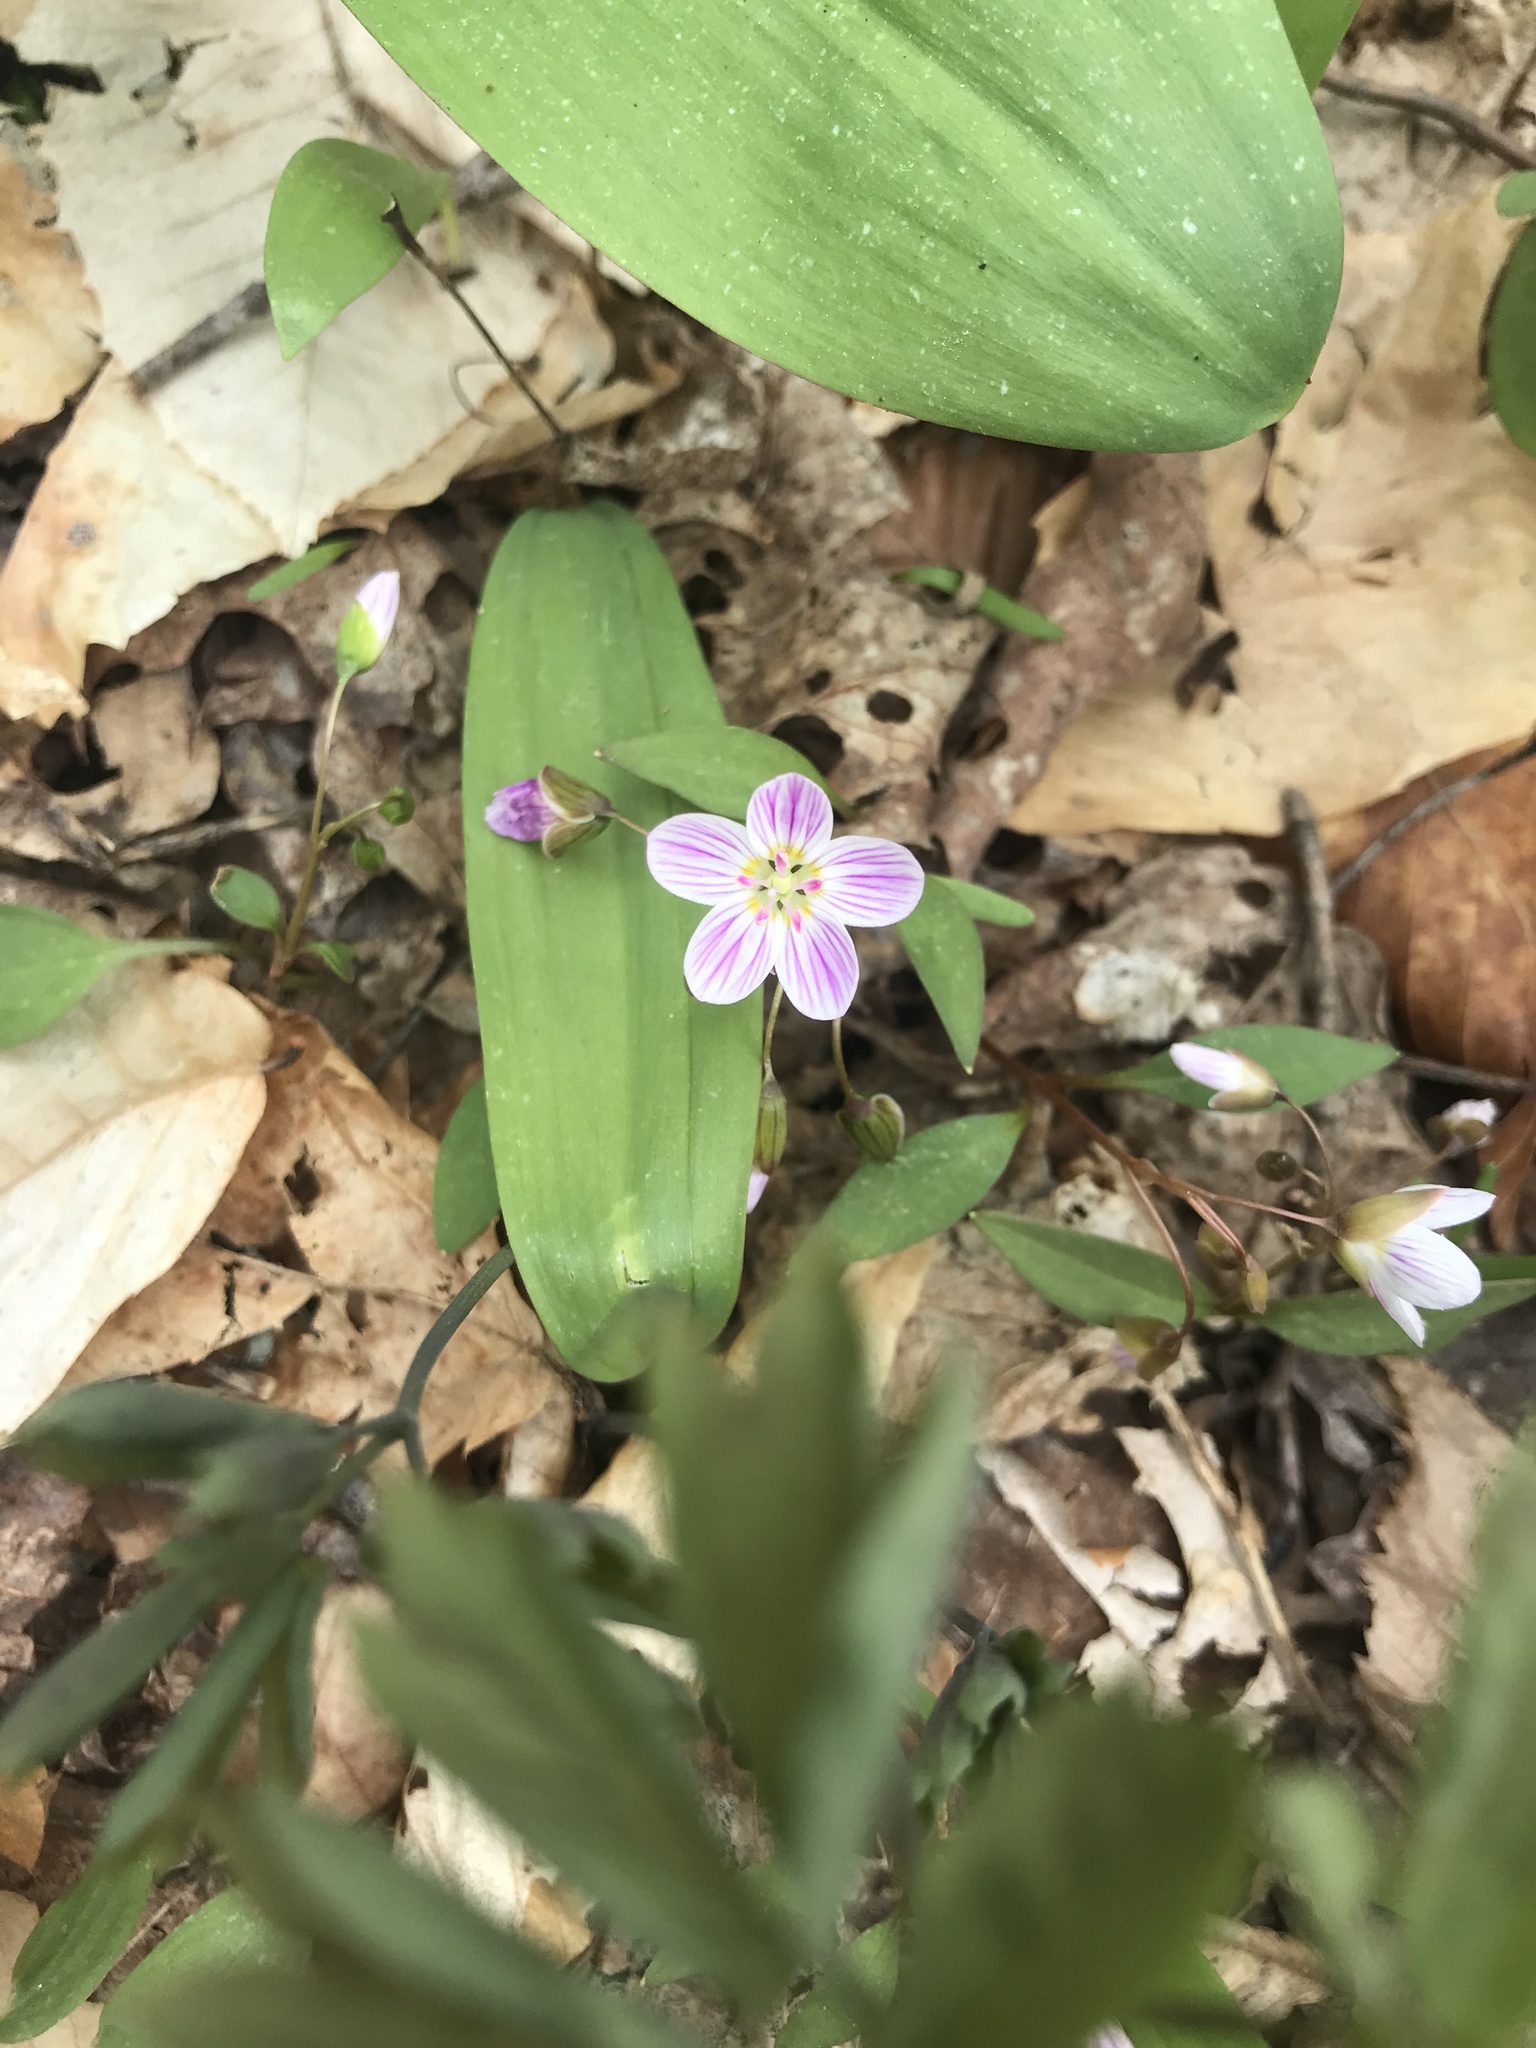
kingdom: Plantae
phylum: Tracheophyta
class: Magnoliopsida
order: Caryophyllales
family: Montiaceae
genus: Claytonia
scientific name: Claytonia caroliniana
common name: Carolina spring beauty
